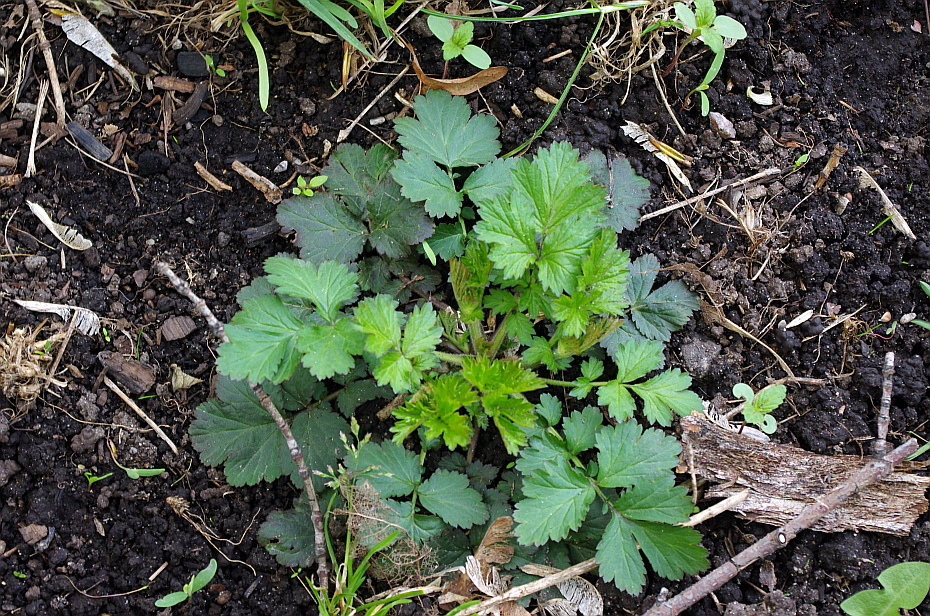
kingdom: Plantae
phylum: Tracheophyta
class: Magnoliopsida
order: Rosales
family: Rosaceae
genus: Geum
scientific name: Geum
